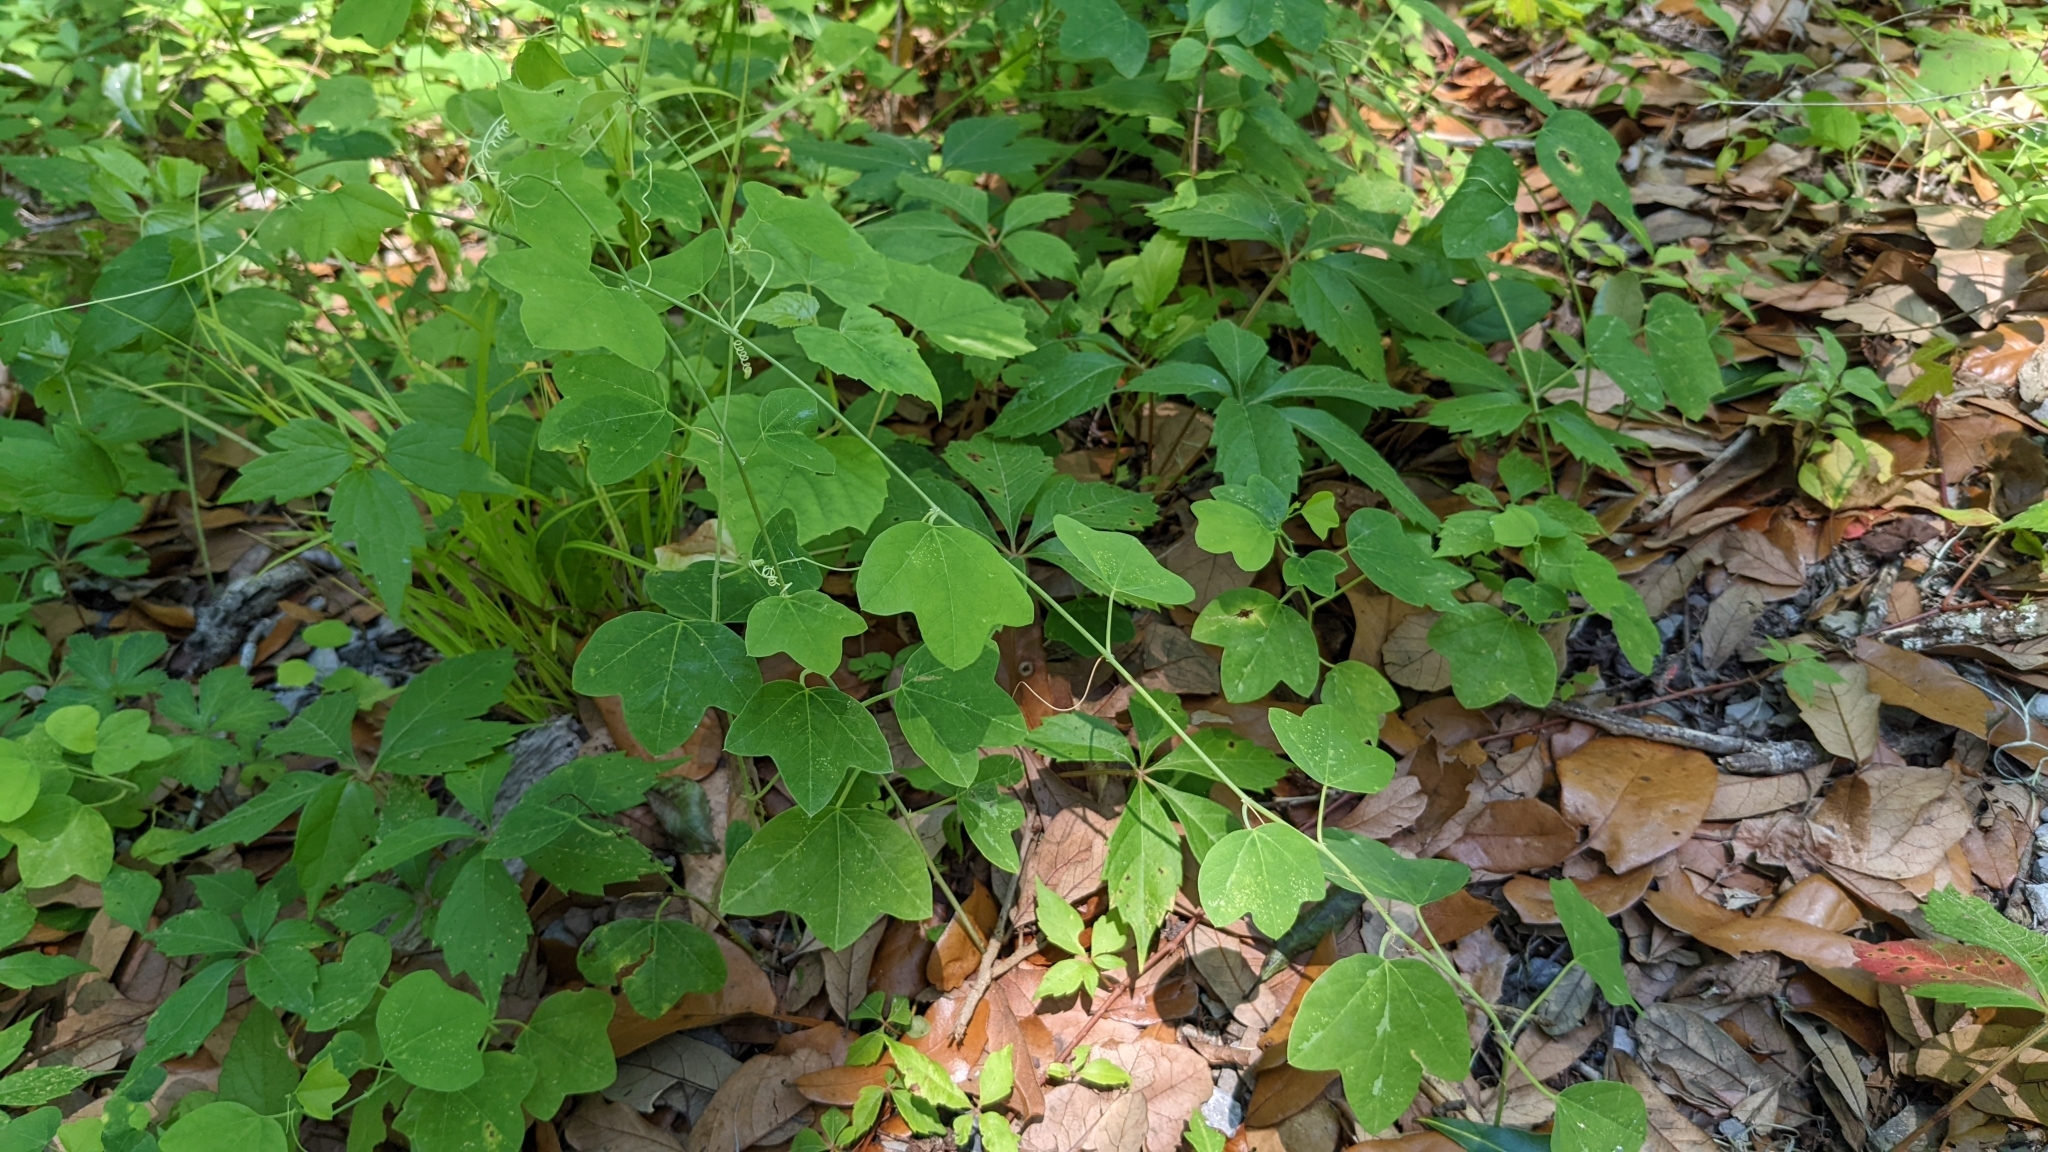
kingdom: Plantae
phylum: Tracheophyta
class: Magnoliopsida
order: Malpighiales
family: Passifloraceae
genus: Passiflora
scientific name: Passiflora lutea
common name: Yellow passionflower
